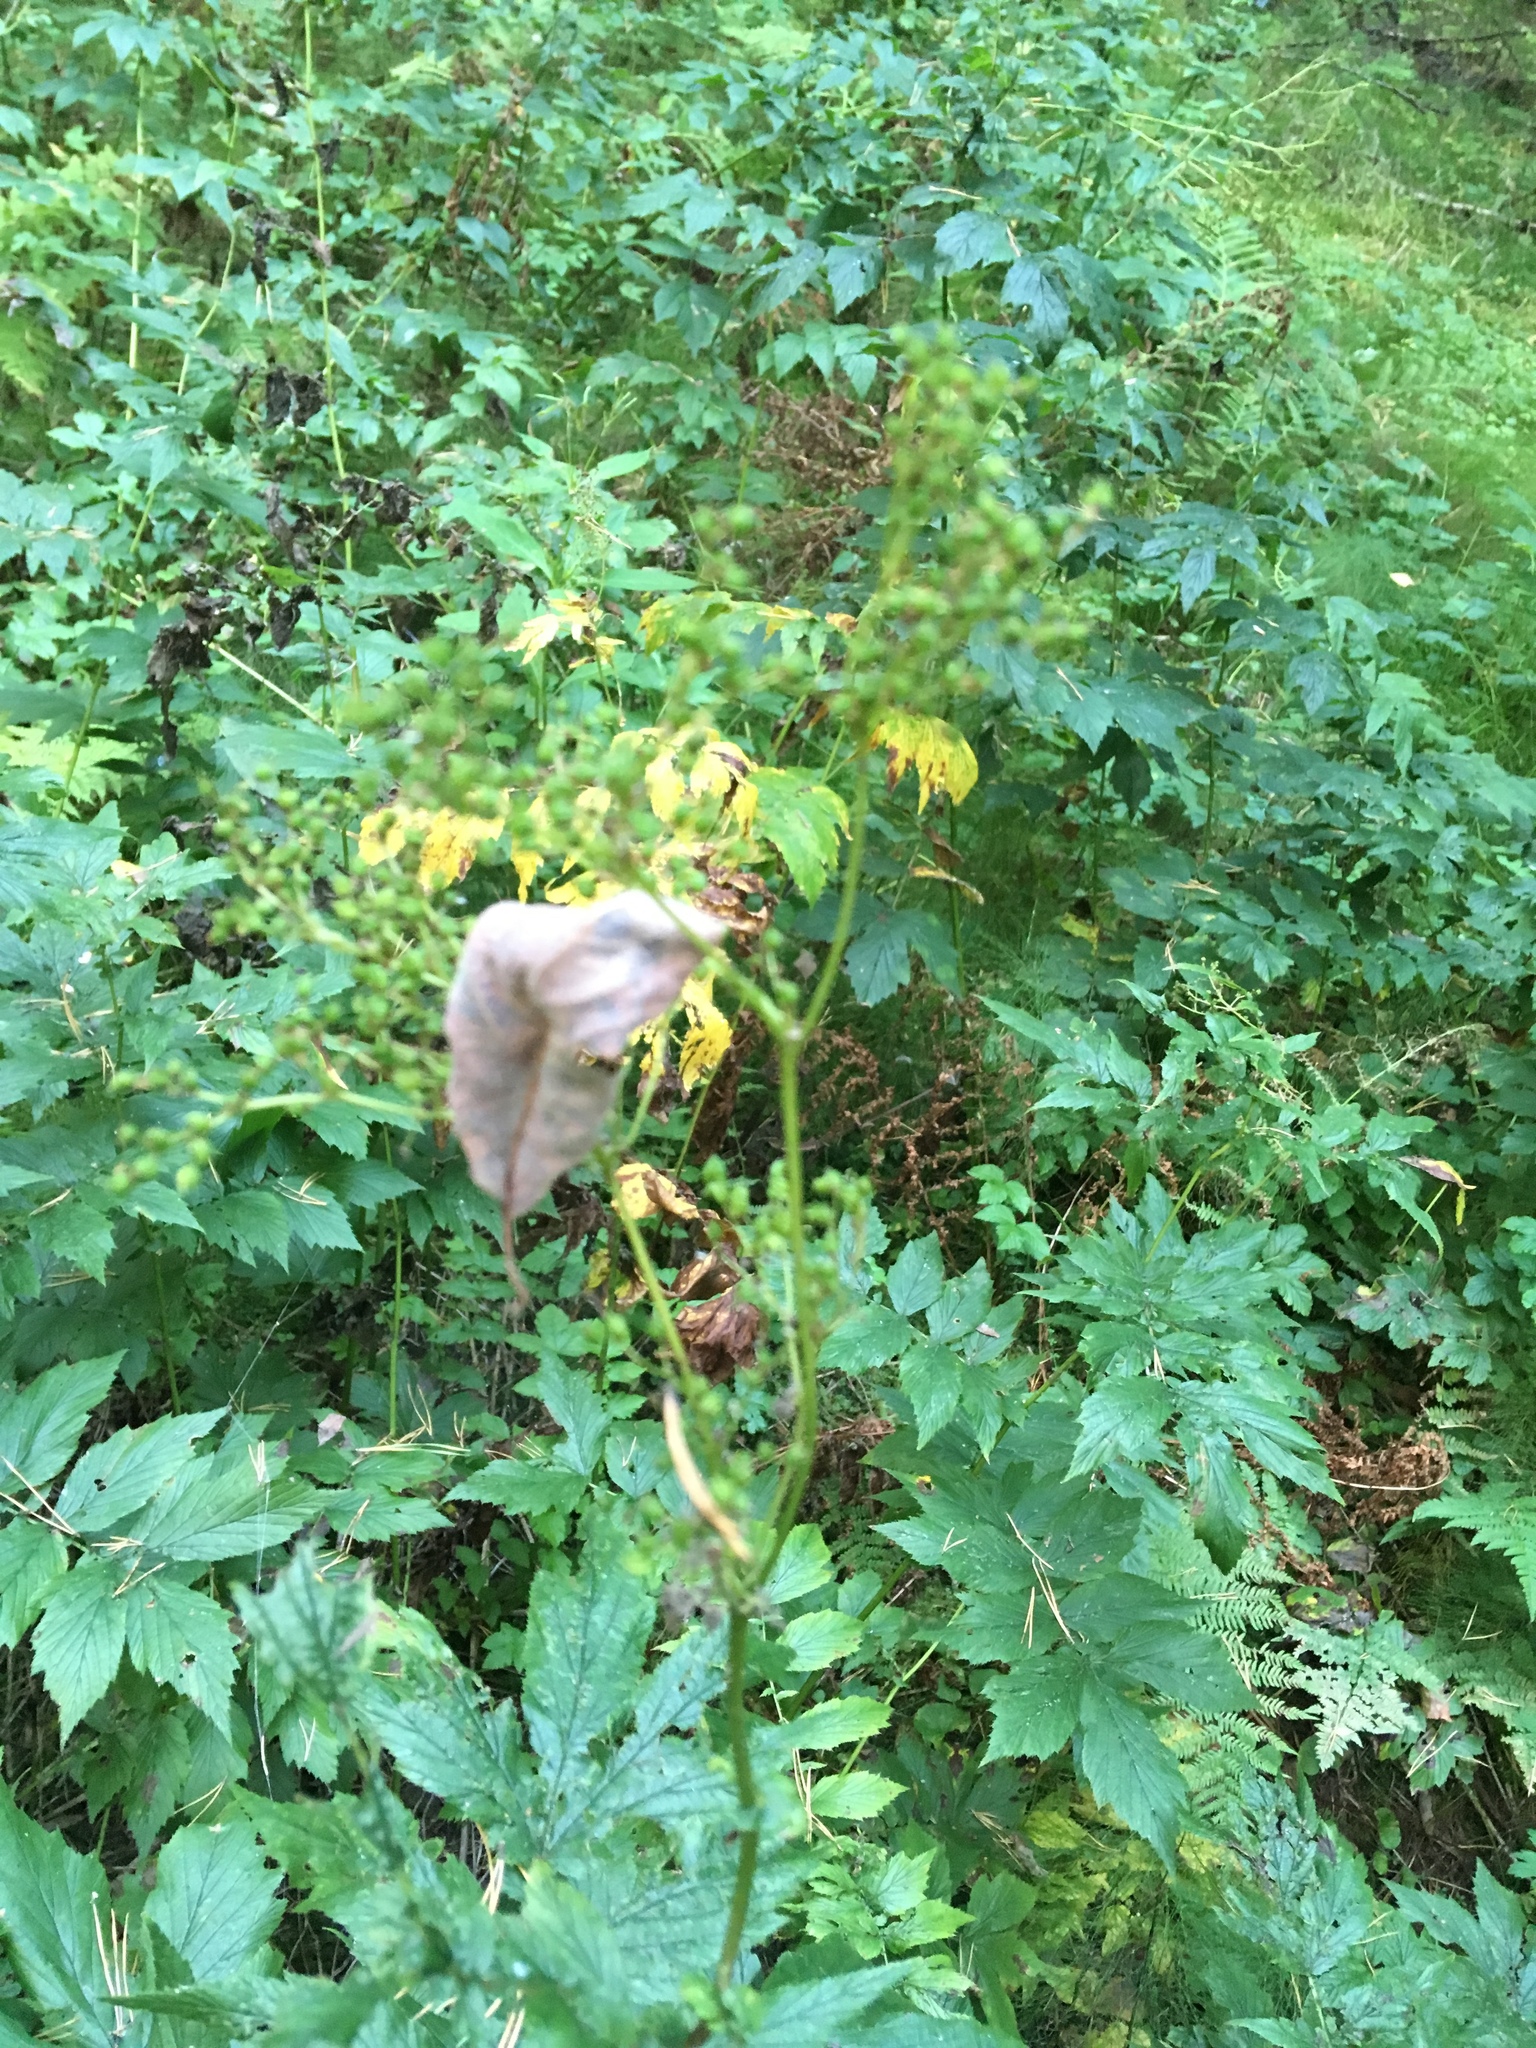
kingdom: Plantae
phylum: Tracheophyta
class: Magnoliopsida
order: Rosales
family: Rosaceae
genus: Filipendula
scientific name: Filipendula ulmaria
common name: Meadowsweet
